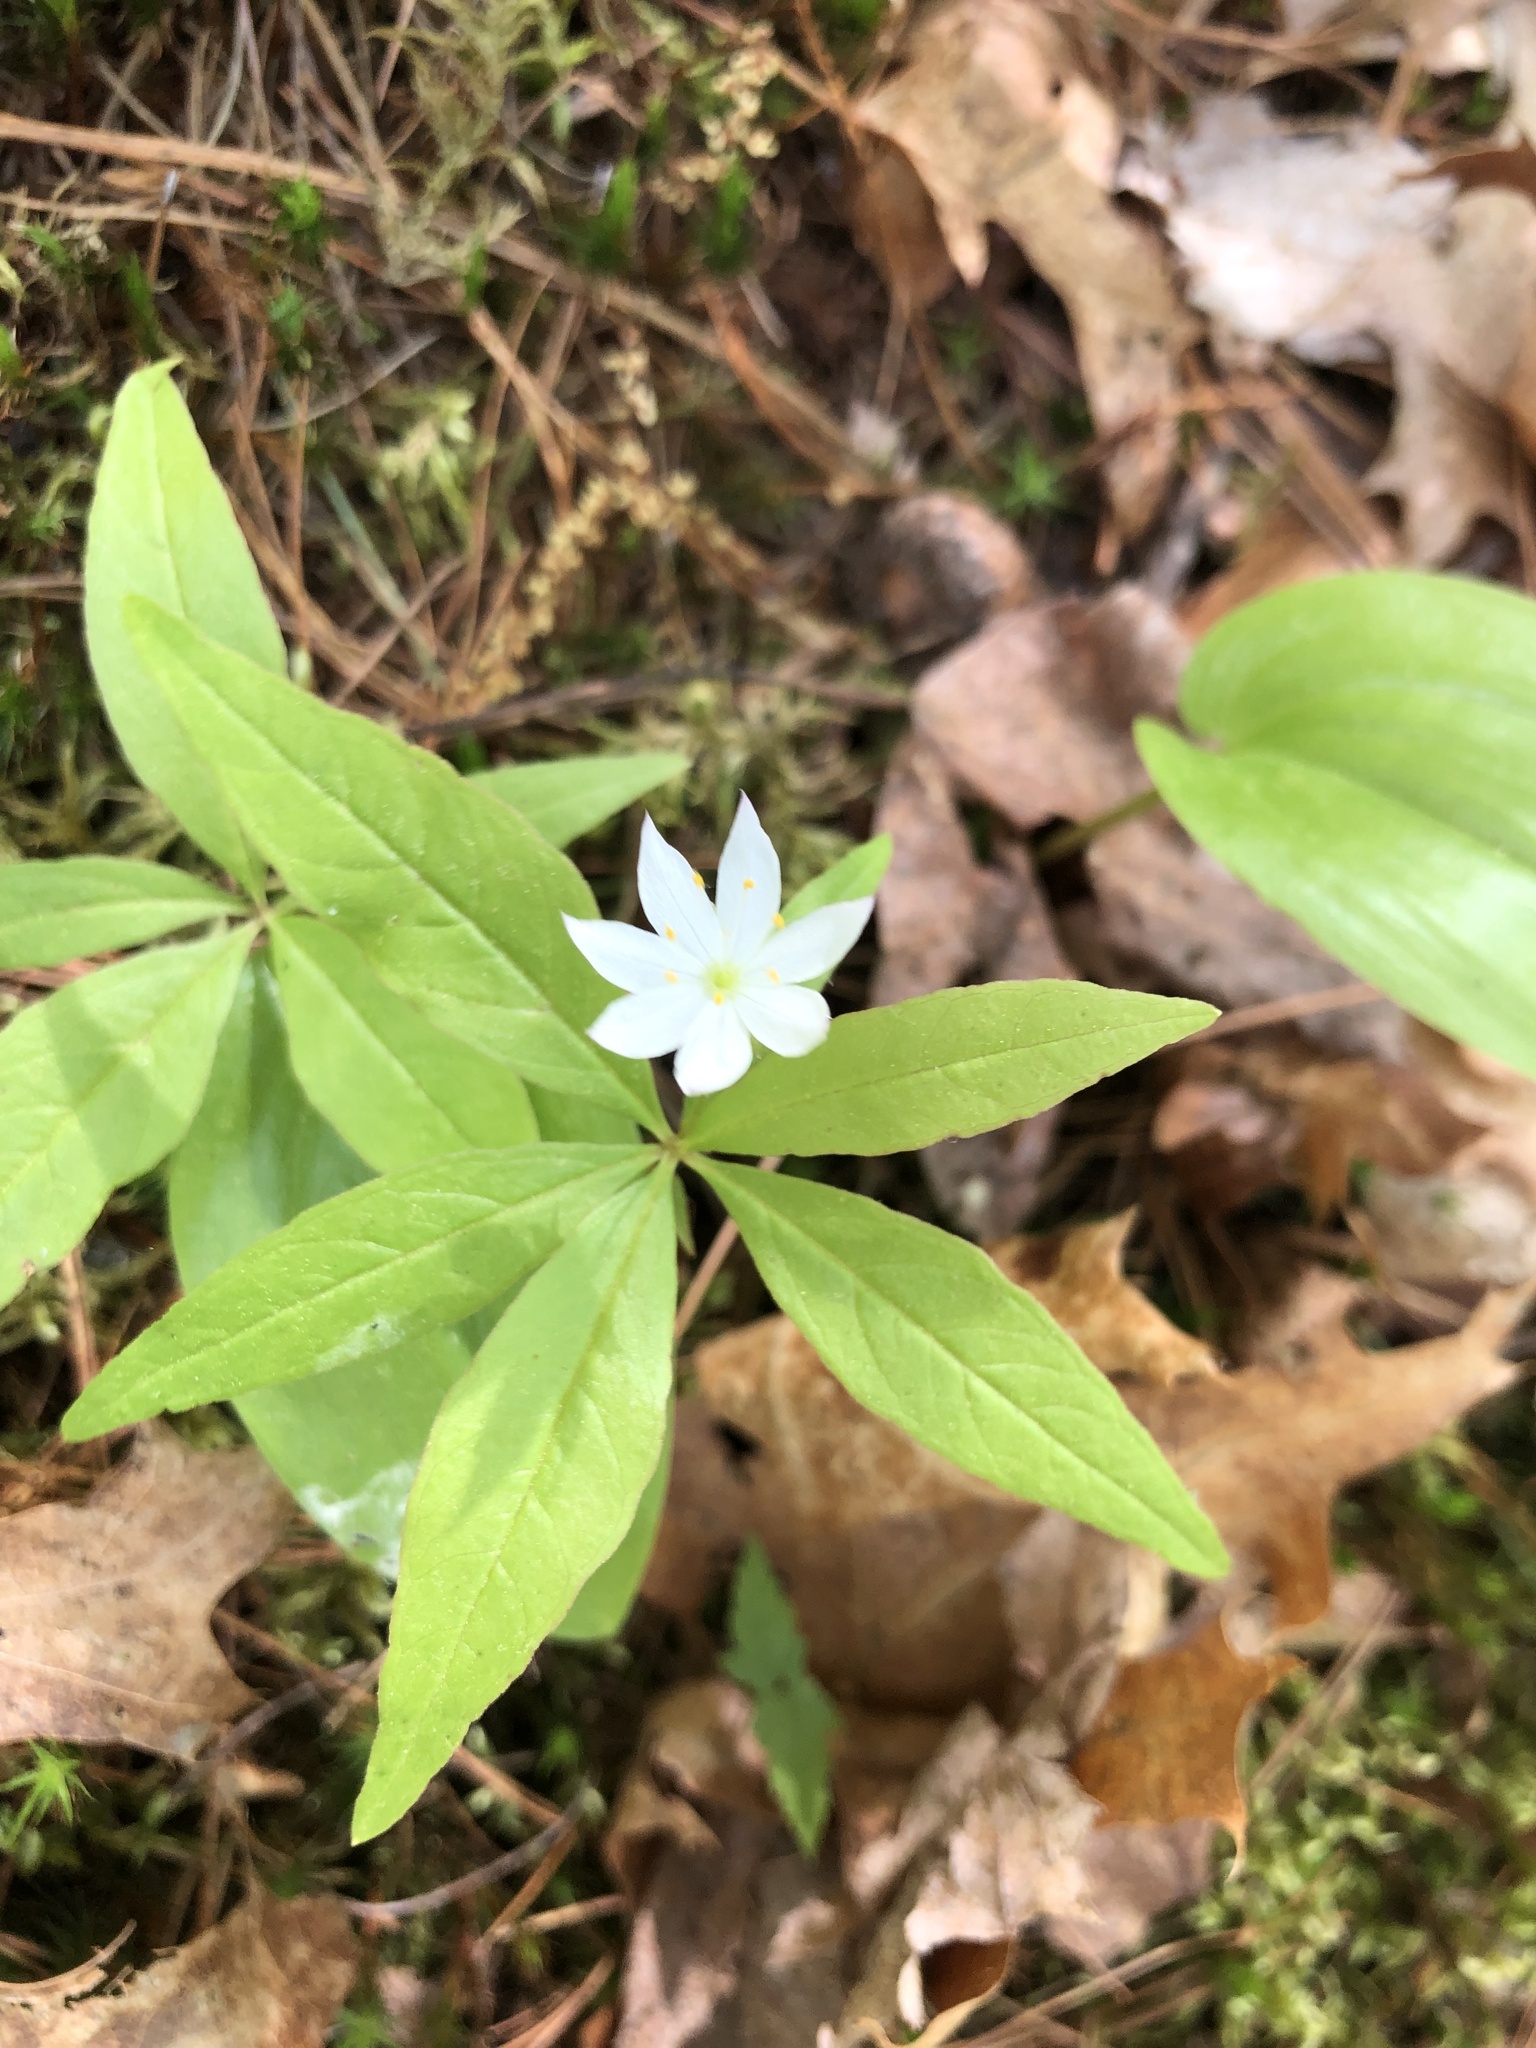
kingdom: Plantae
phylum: Tracheophyta
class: Magnoliopsida
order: Ericales
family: Primulaceae
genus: Lysimachia
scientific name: Lysimachia borealis
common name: American starflower
